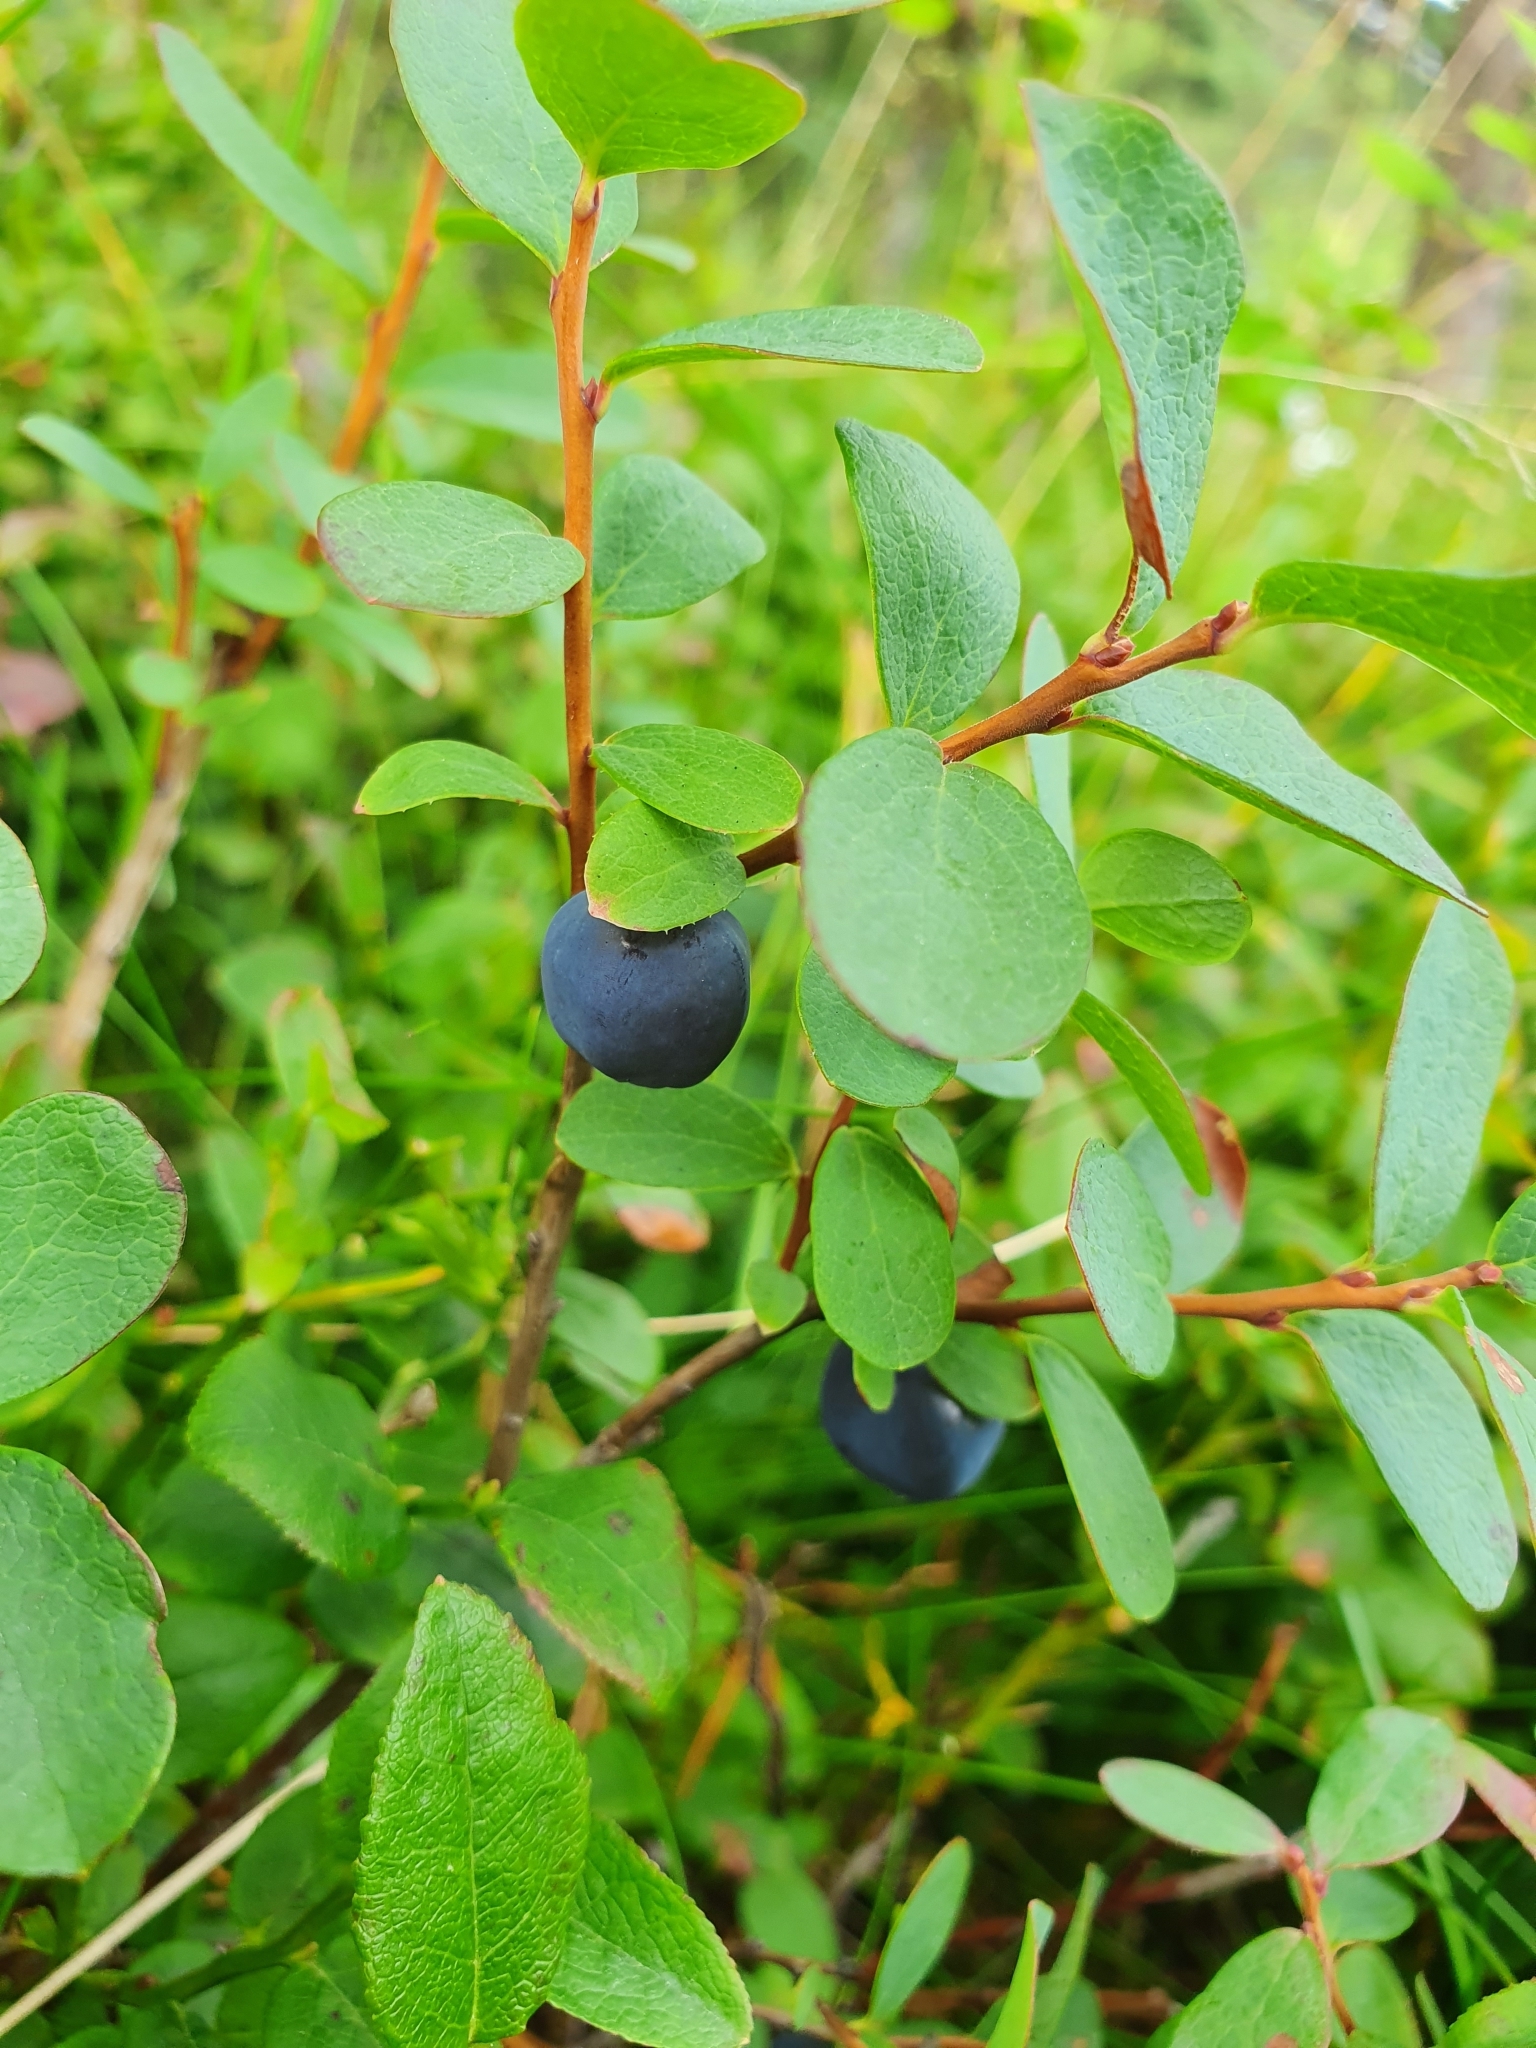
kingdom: Plantae
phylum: Tracheophyta
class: Magnoliopsida
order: Ericales
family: Ericaceae
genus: Vaccinium
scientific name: Vaccinium uliginosum
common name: Bog bilberry
